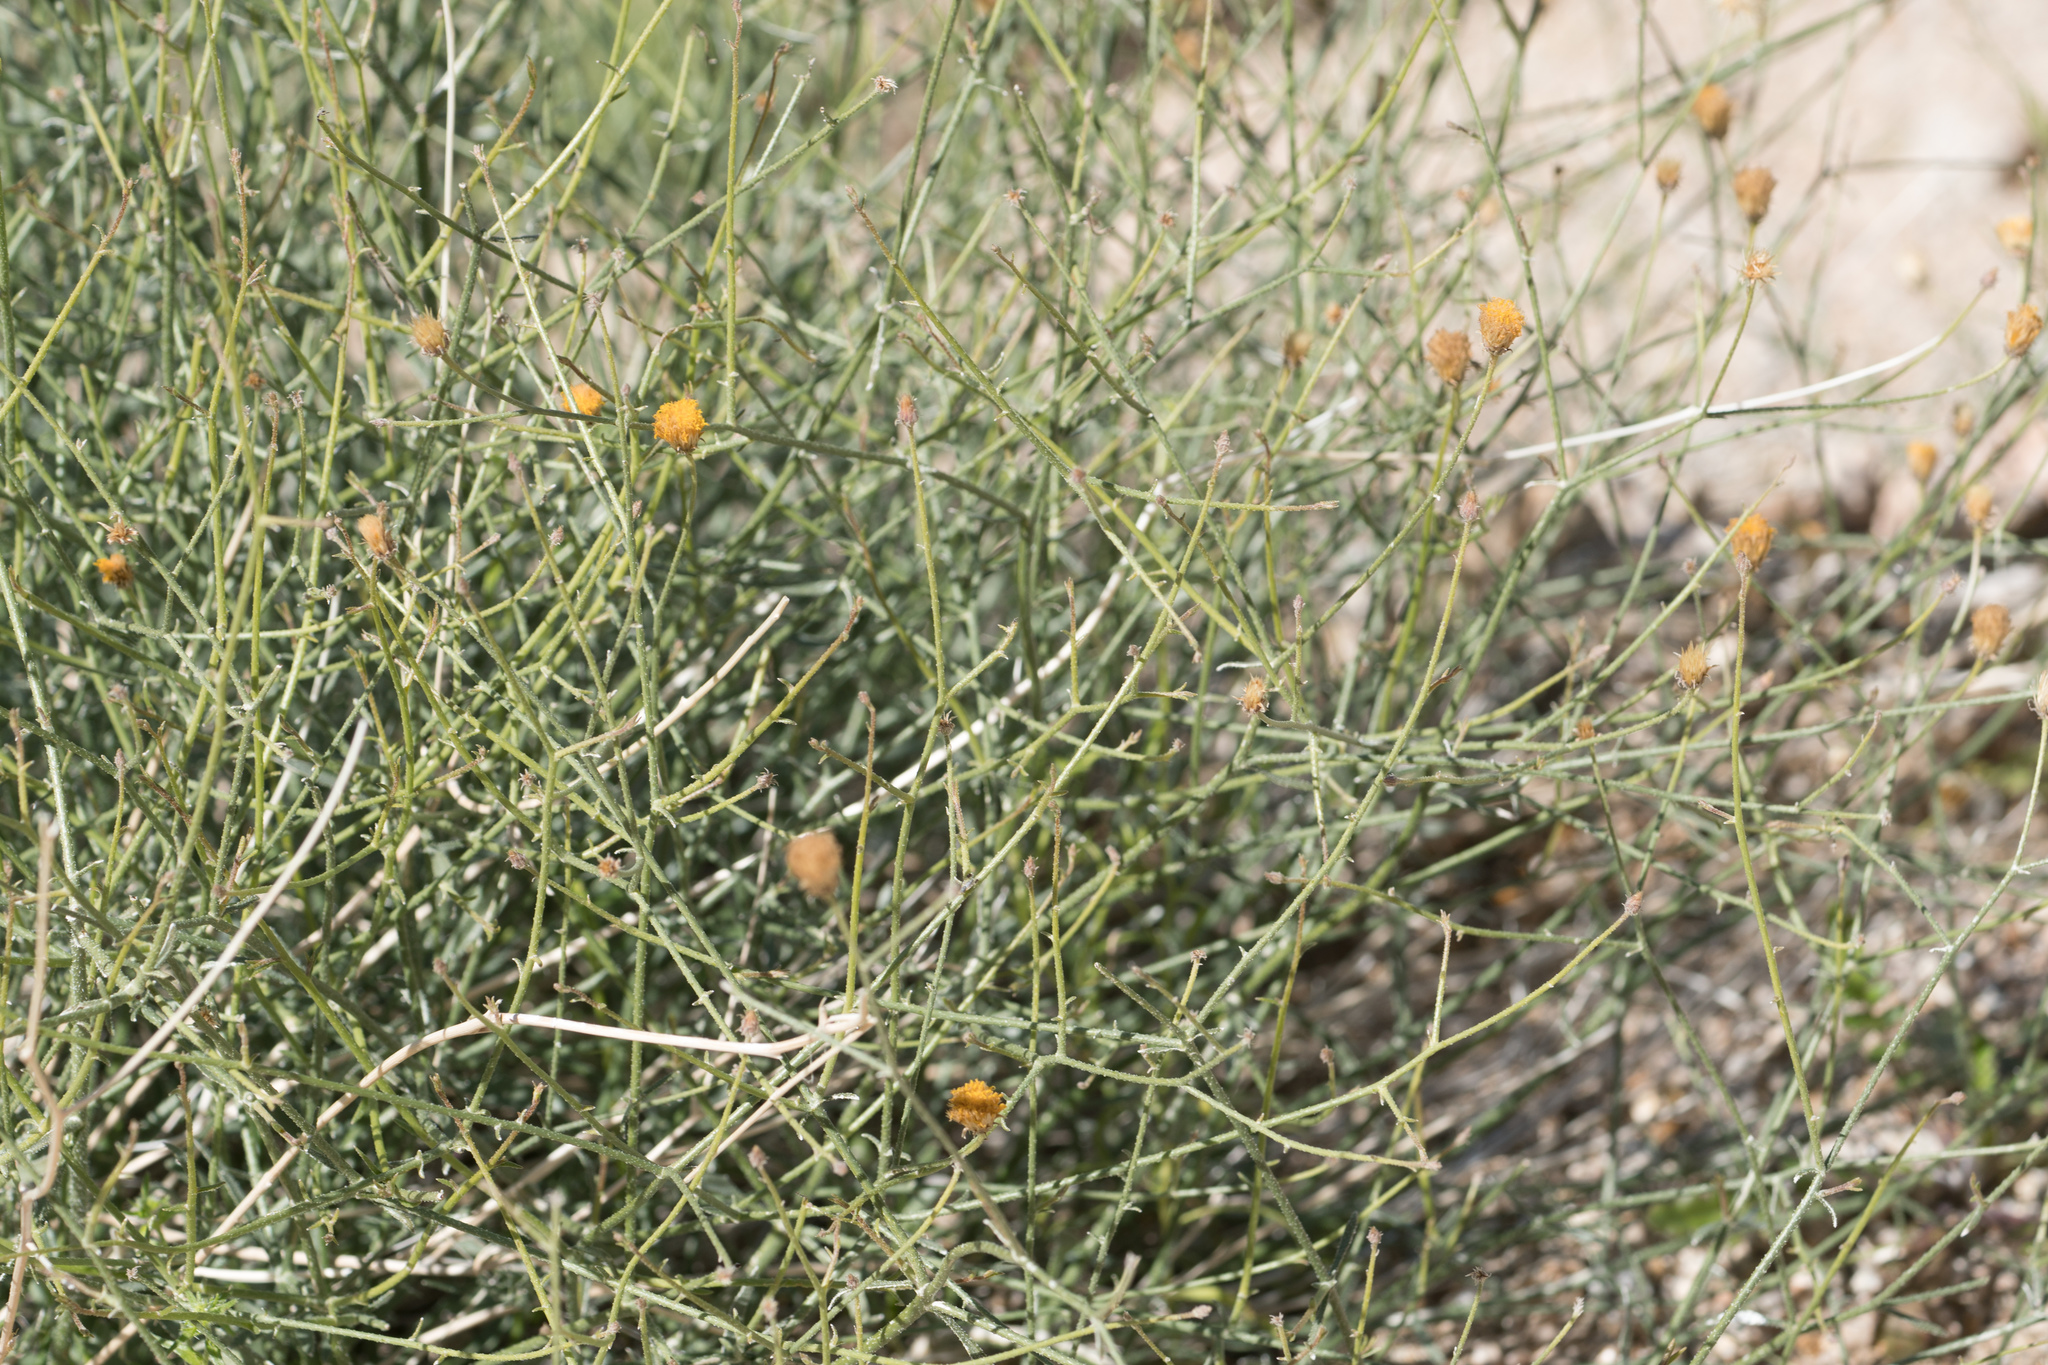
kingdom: Plantae
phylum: Tracheophyta
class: Magnoliopsida
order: Asterales
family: Asteraceae
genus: Bebbia
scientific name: Bebbia juncea
